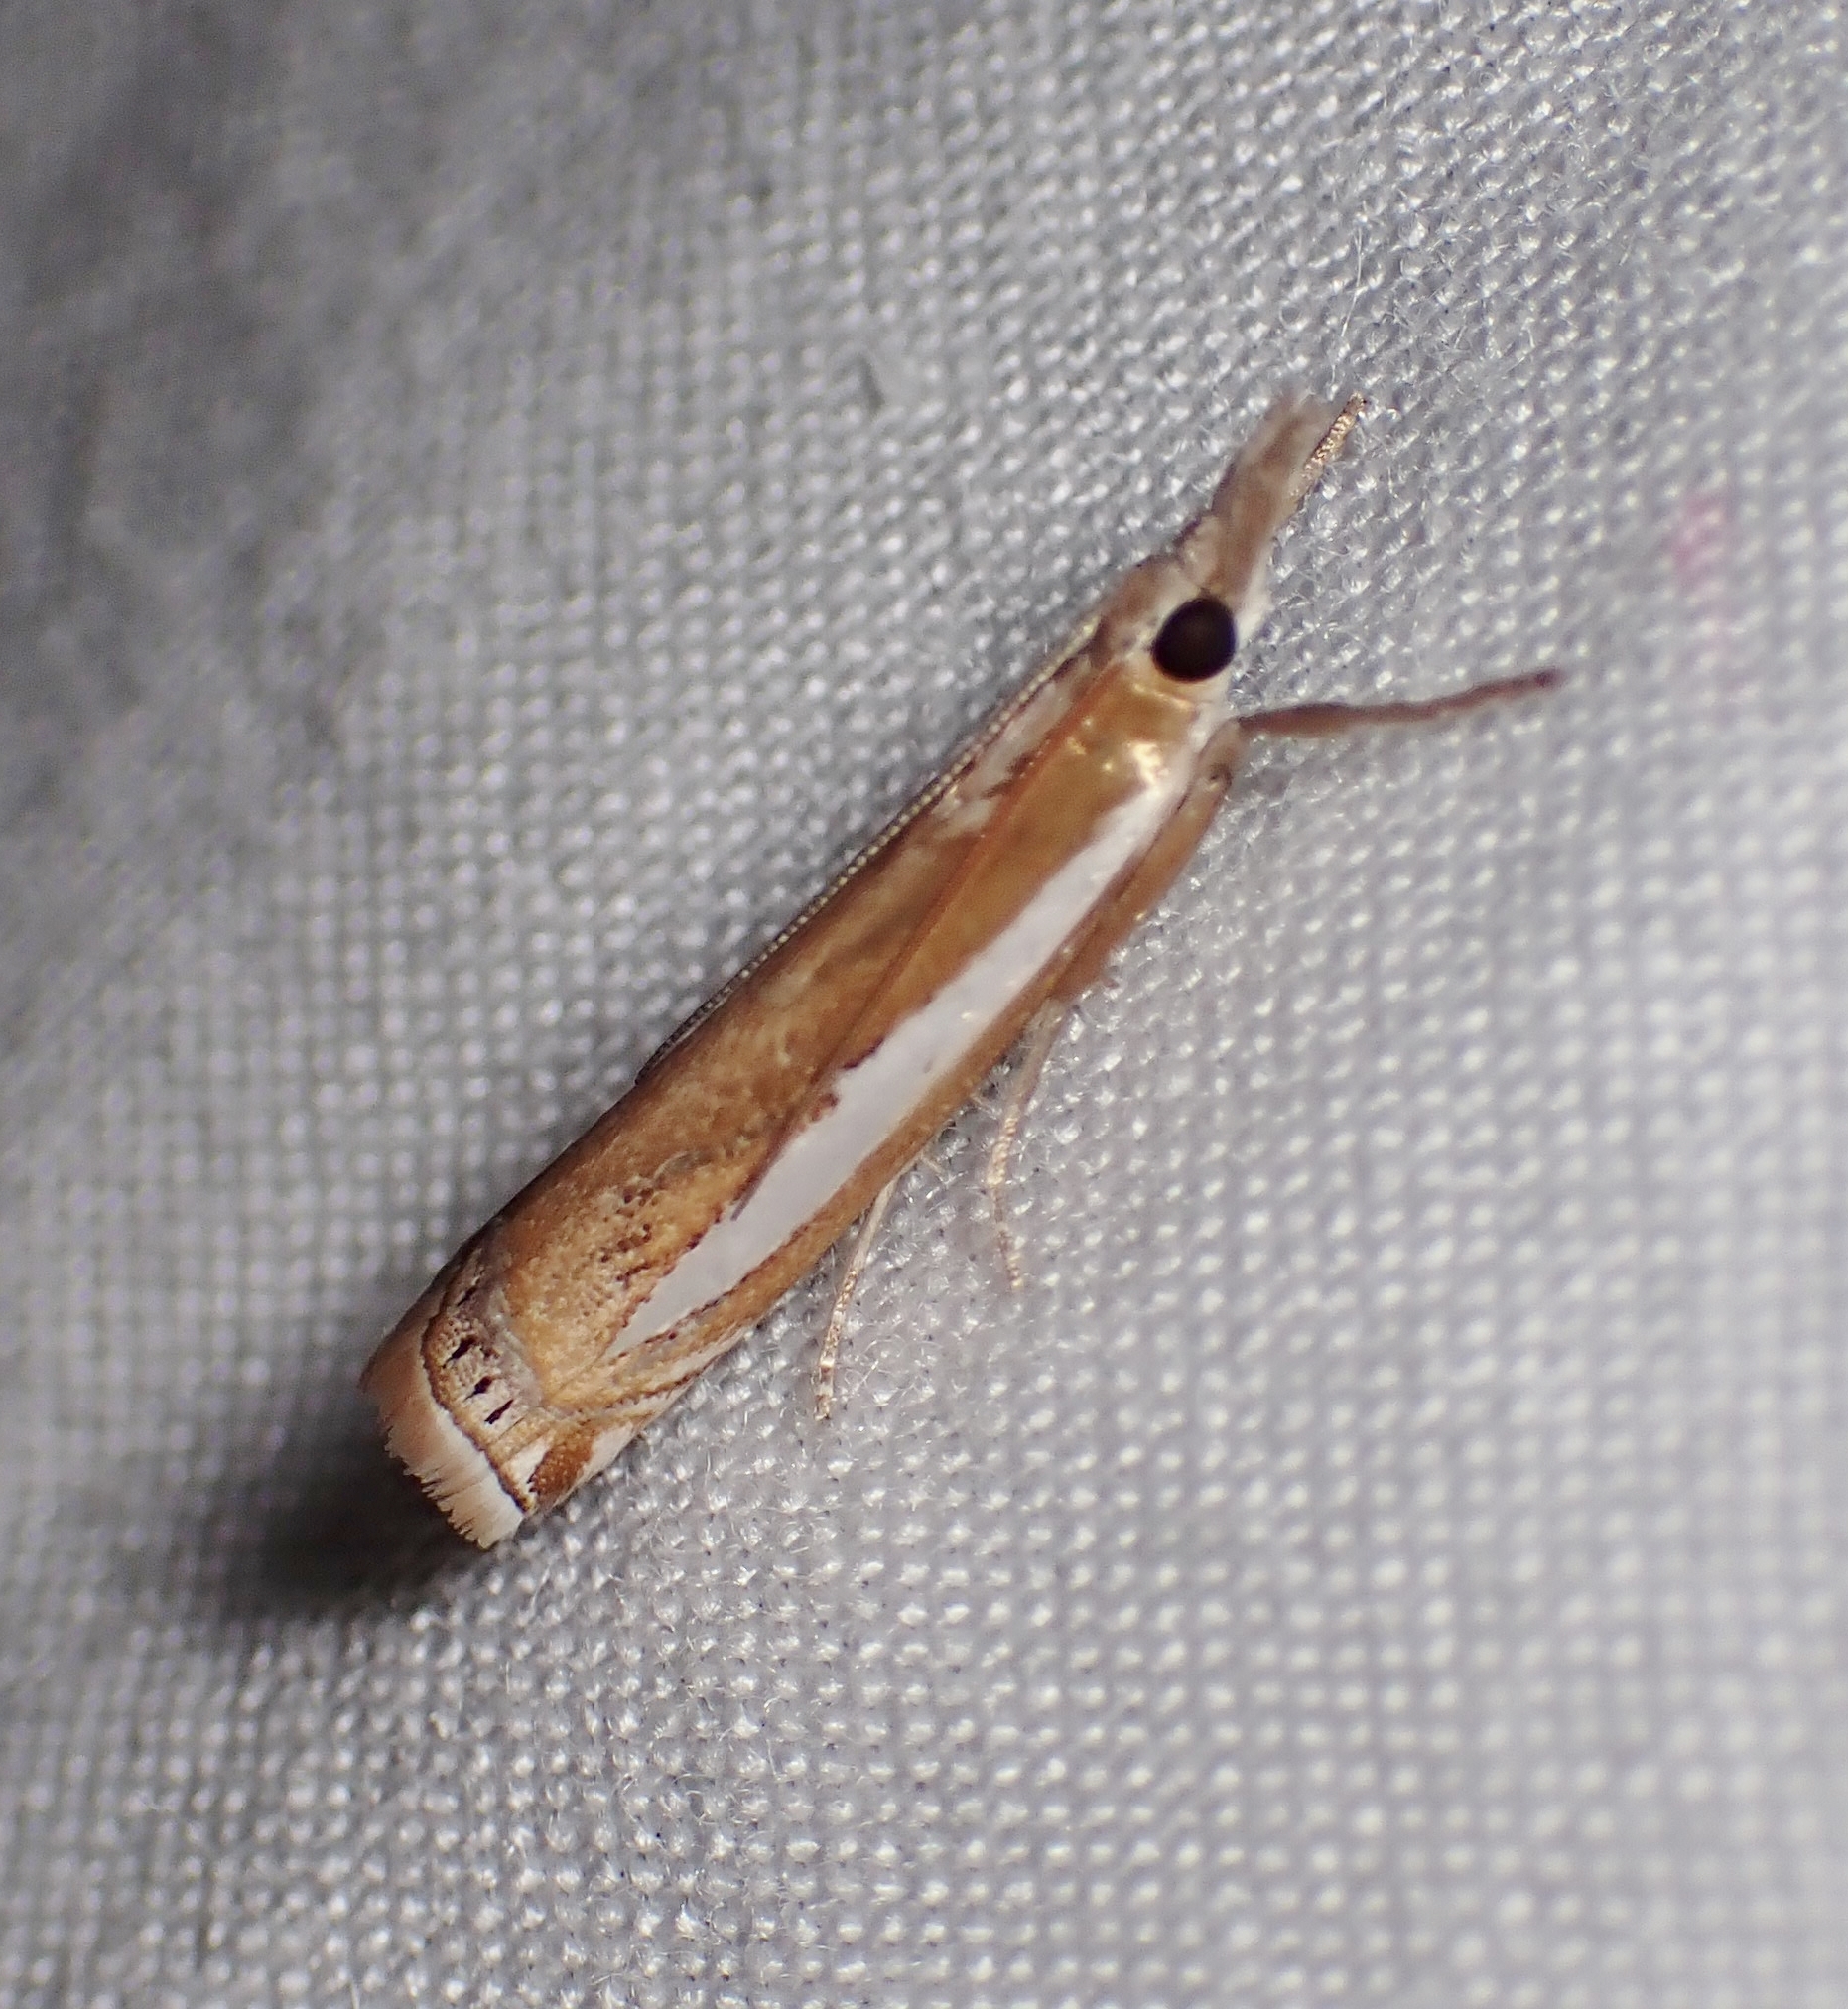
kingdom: Animalia
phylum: Arthropoda
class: Insecta
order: Lepidoptera
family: Crambidae
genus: Crambus
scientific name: Crambus praefectellus
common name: Common grass-veneer
